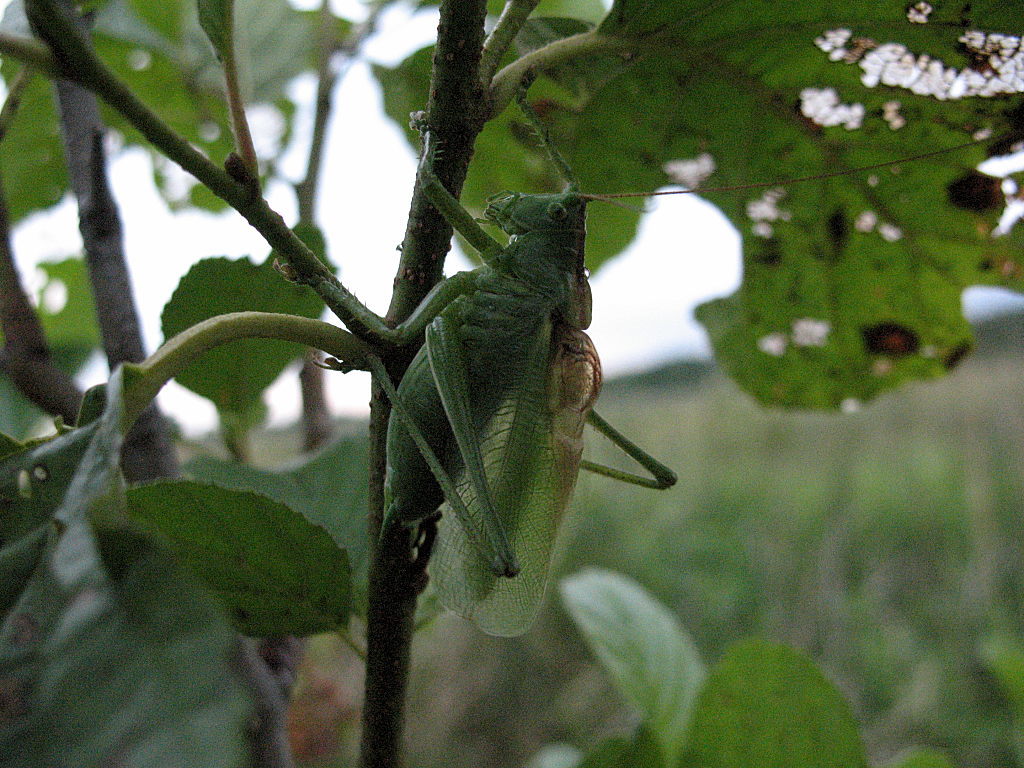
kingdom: Animalia
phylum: Arthropoda
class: Insecta
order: Orthoptera
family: Tettigoniidae
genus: Tettigonia
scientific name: Tettigonia cantans
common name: Upland green bush-cricket
